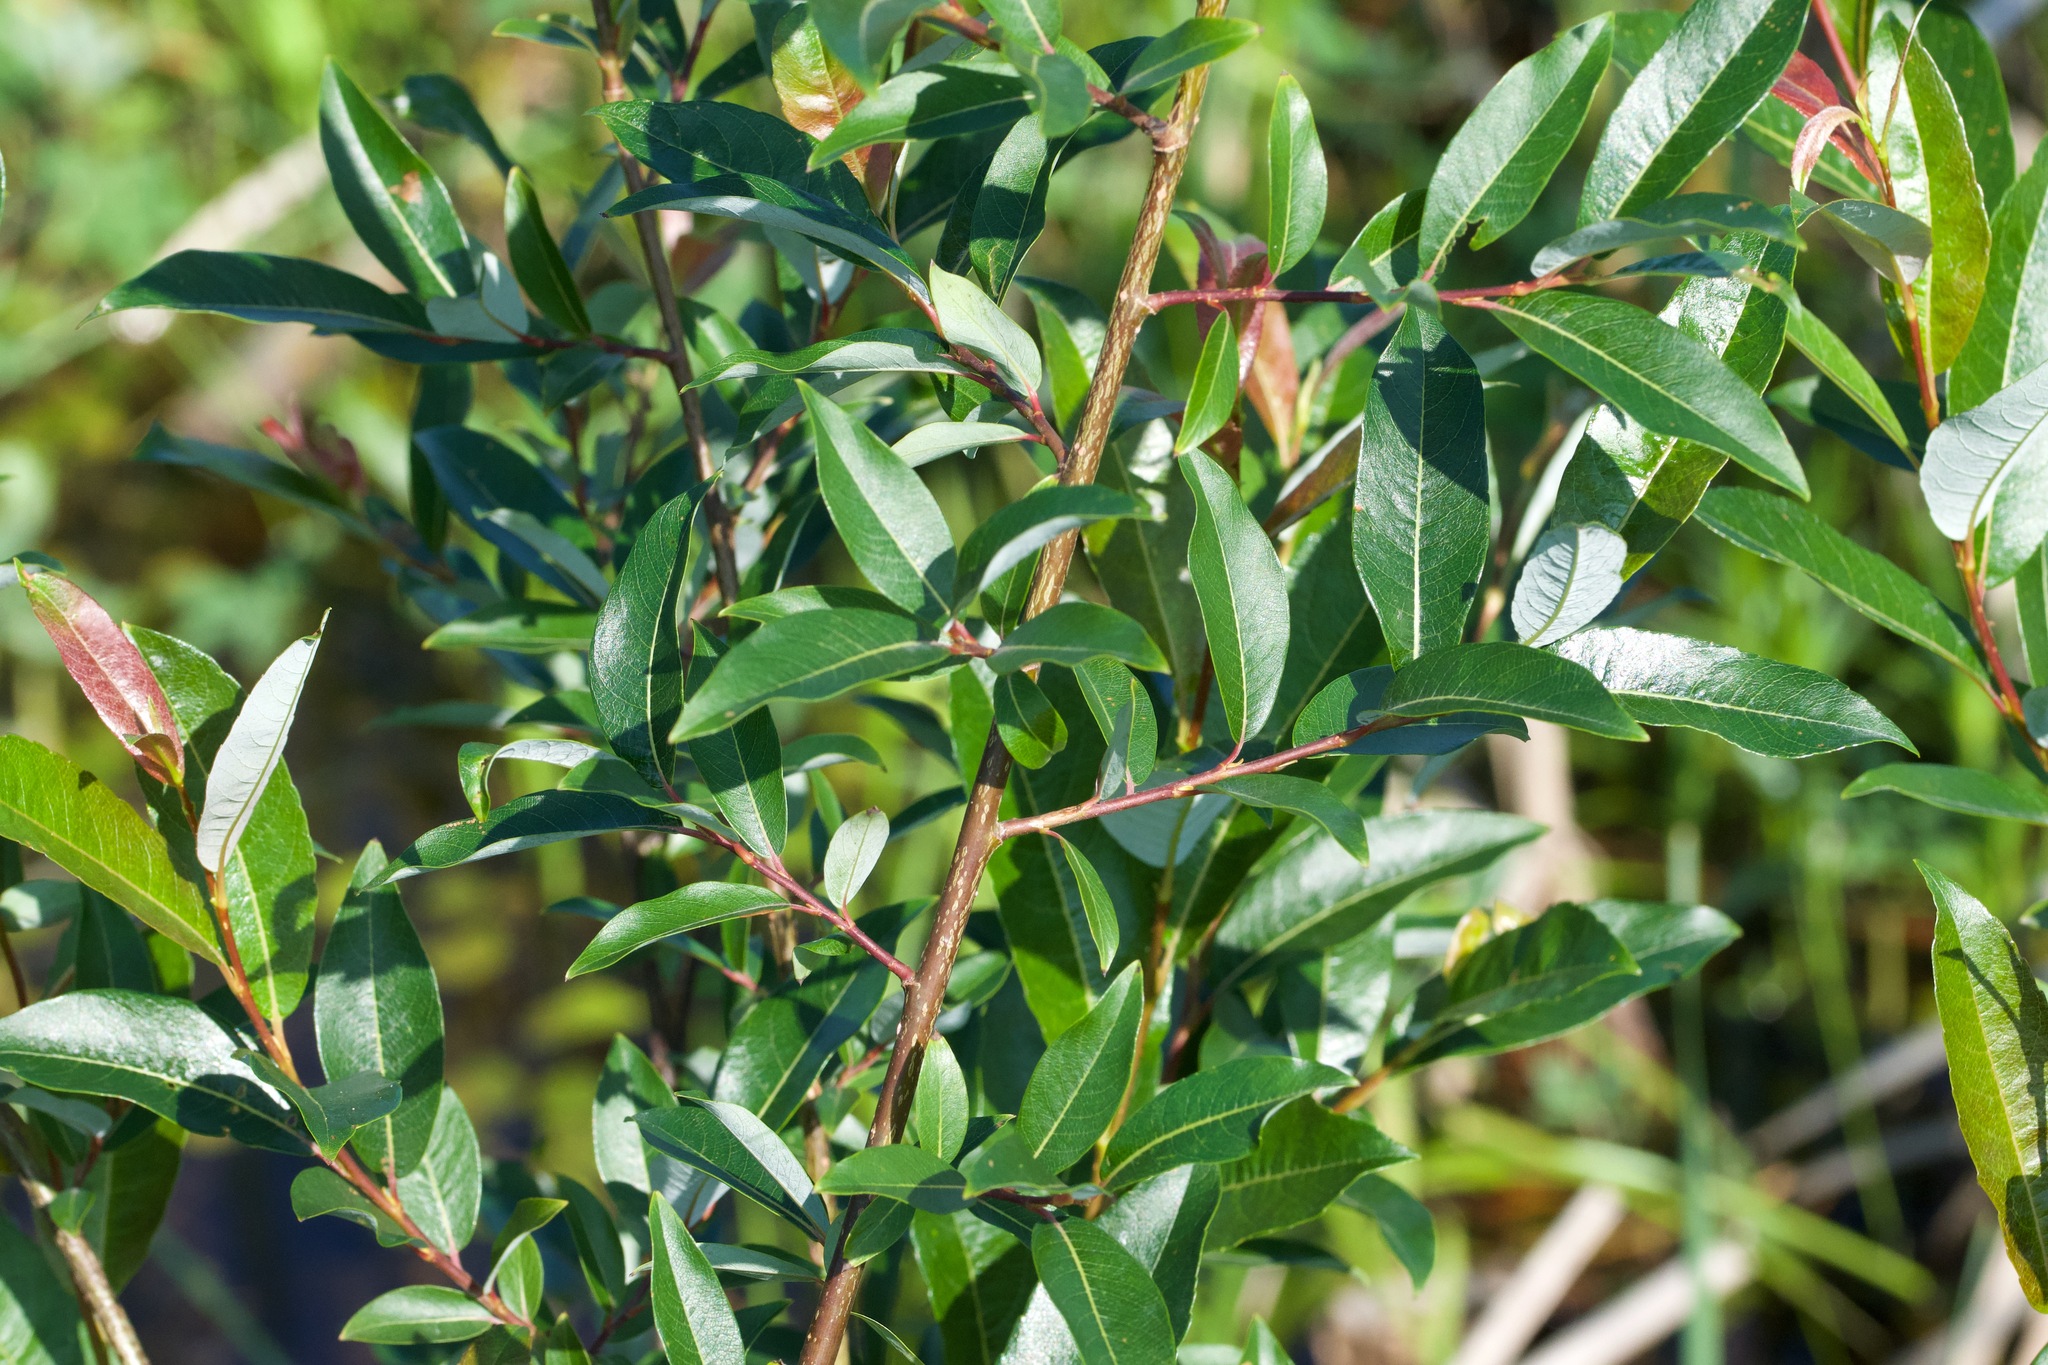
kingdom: Plantae
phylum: Tracheophyta
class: Magnoliopsida
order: Malpighiales
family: Salicaceae
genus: Salix
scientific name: Salix pedicellaris
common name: Bog willow
